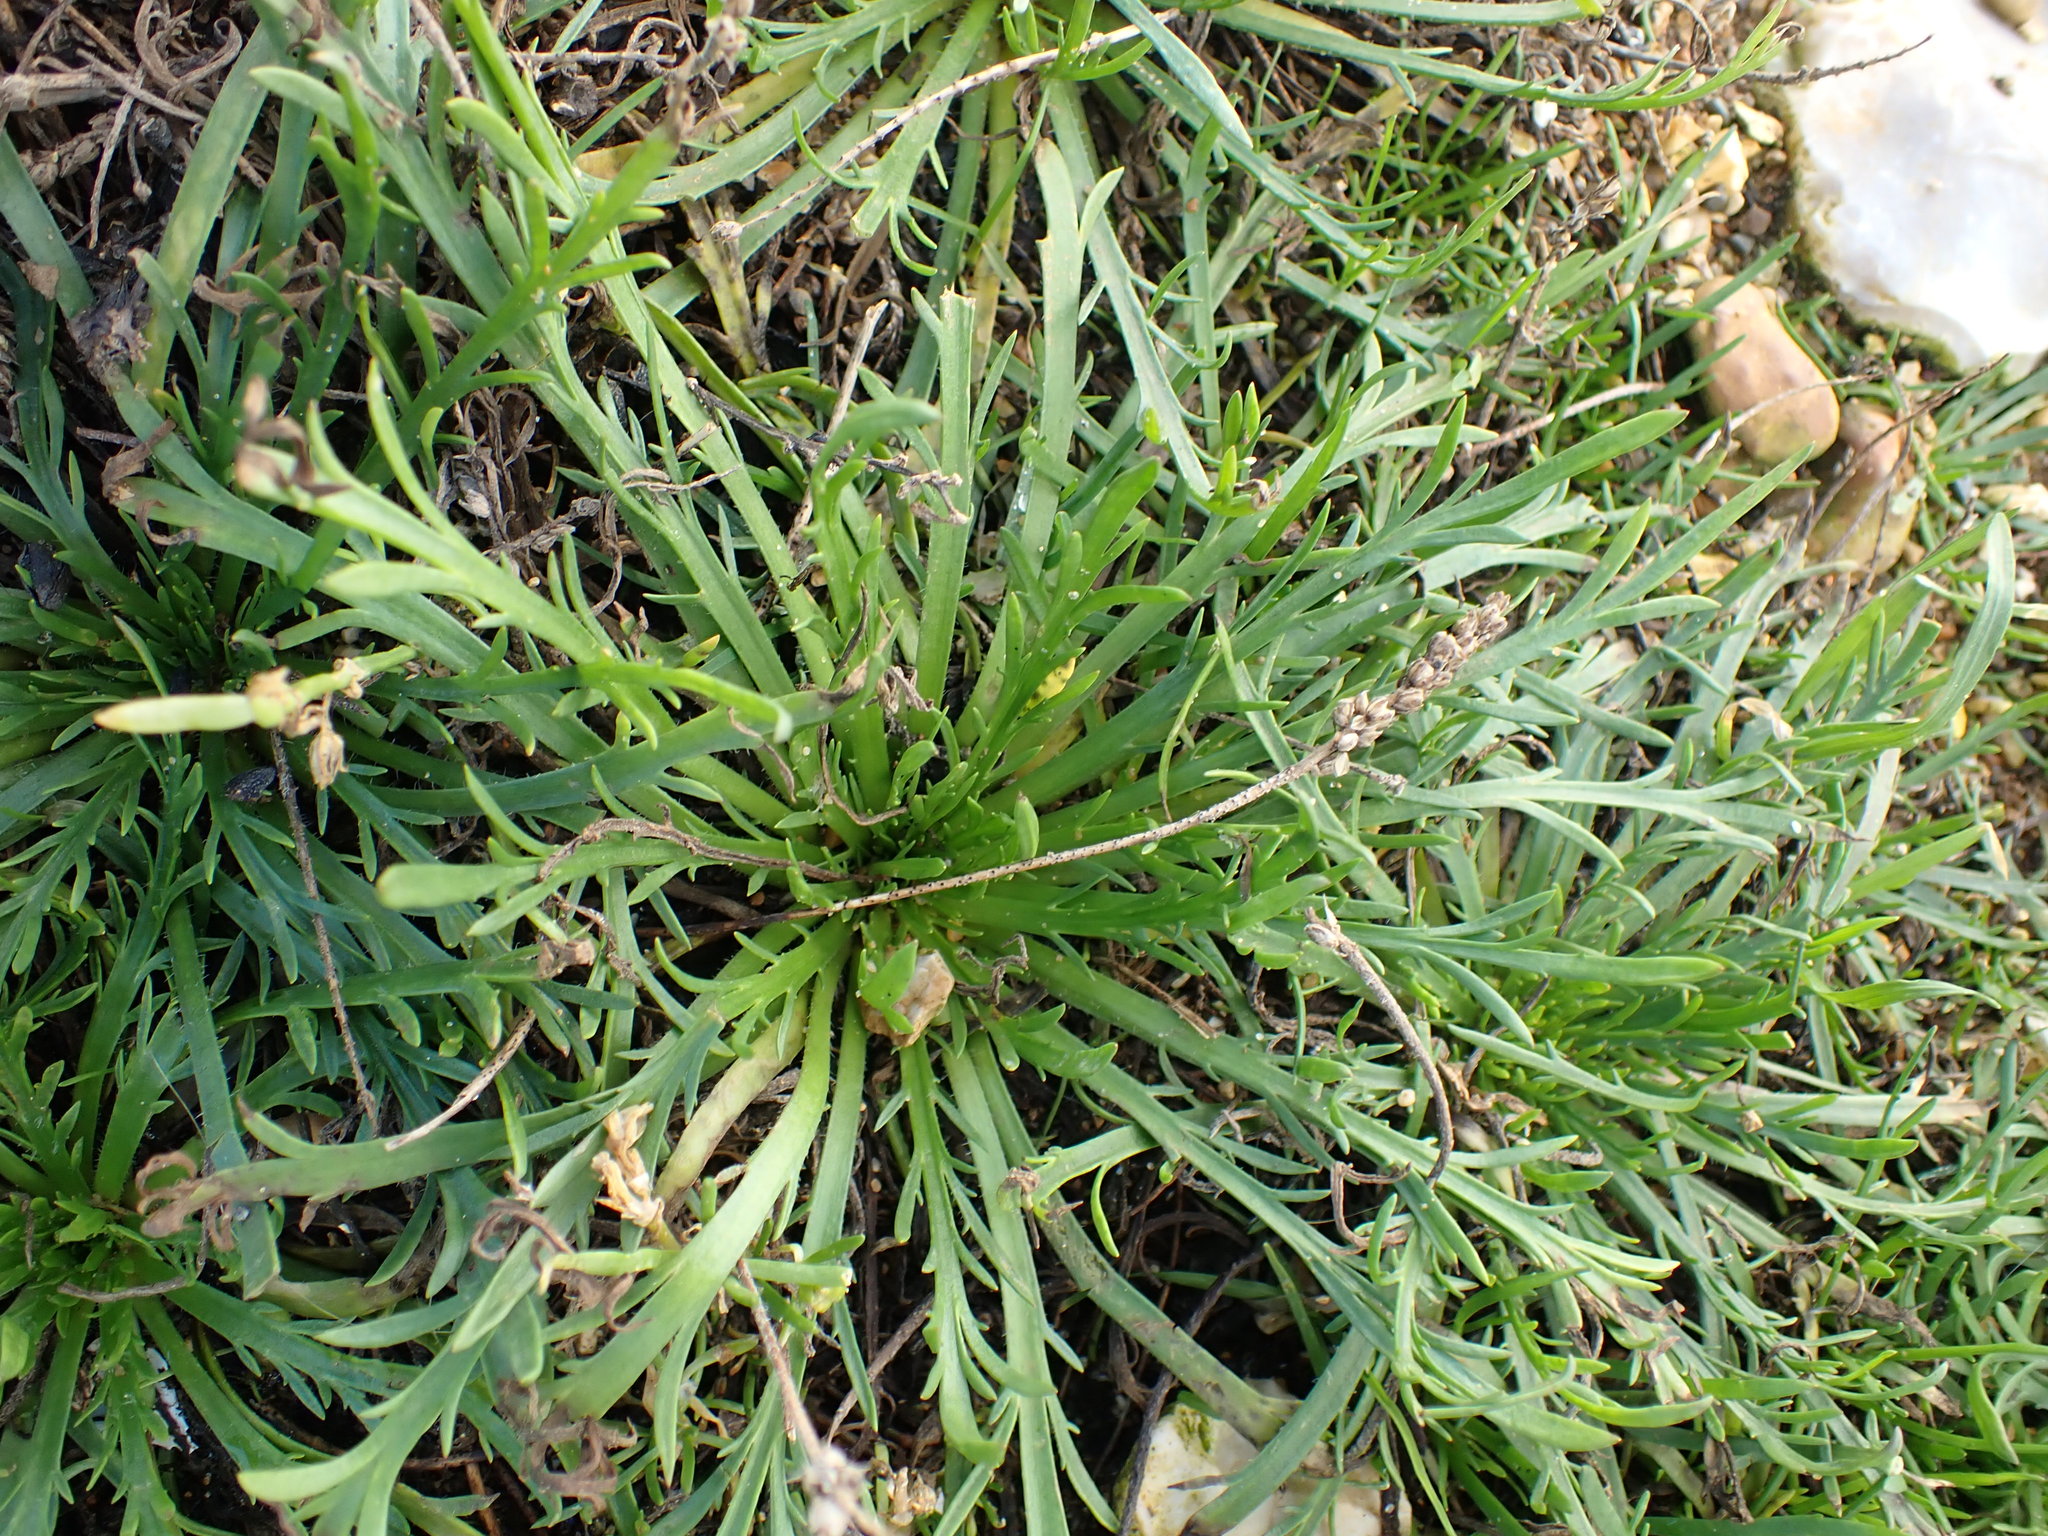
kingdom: Plantae
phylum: Tracheophyta
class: Magnoliopsida
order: Lamiales
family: Plantaginaceae
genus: Plantago
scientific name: Plantago coronopus
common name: Buck's-horn plantain
